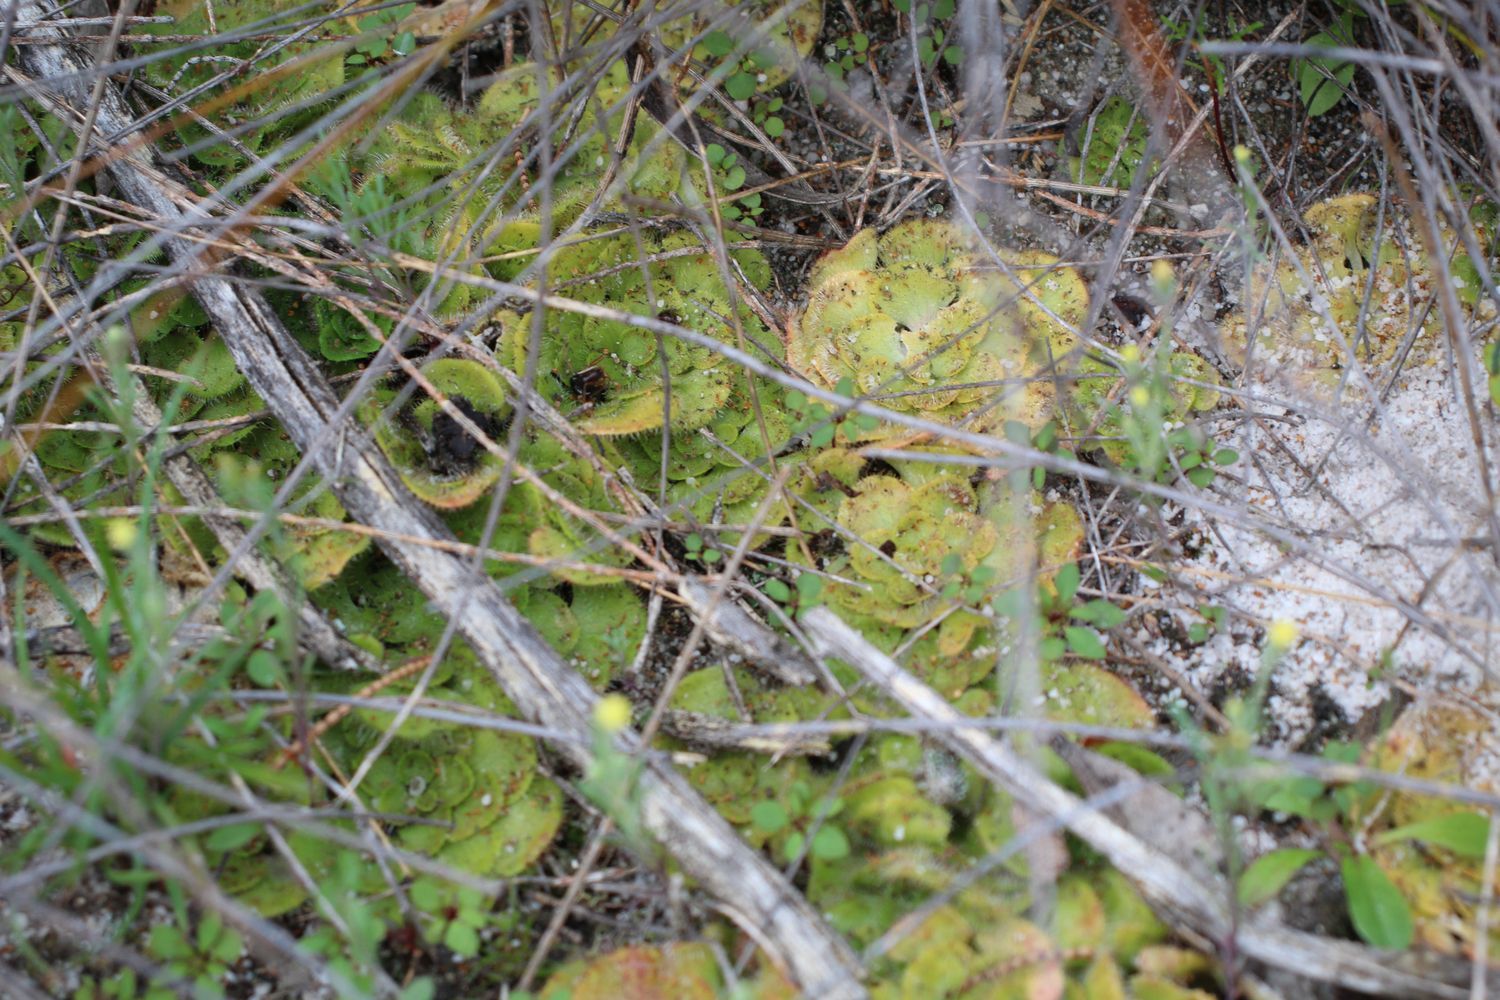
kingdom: Plantae
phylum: Tracheophyta
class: Magnoliopsida
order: Caryophyllales
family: Droseraceae
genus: Drosera
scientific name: Drosera zonaria
